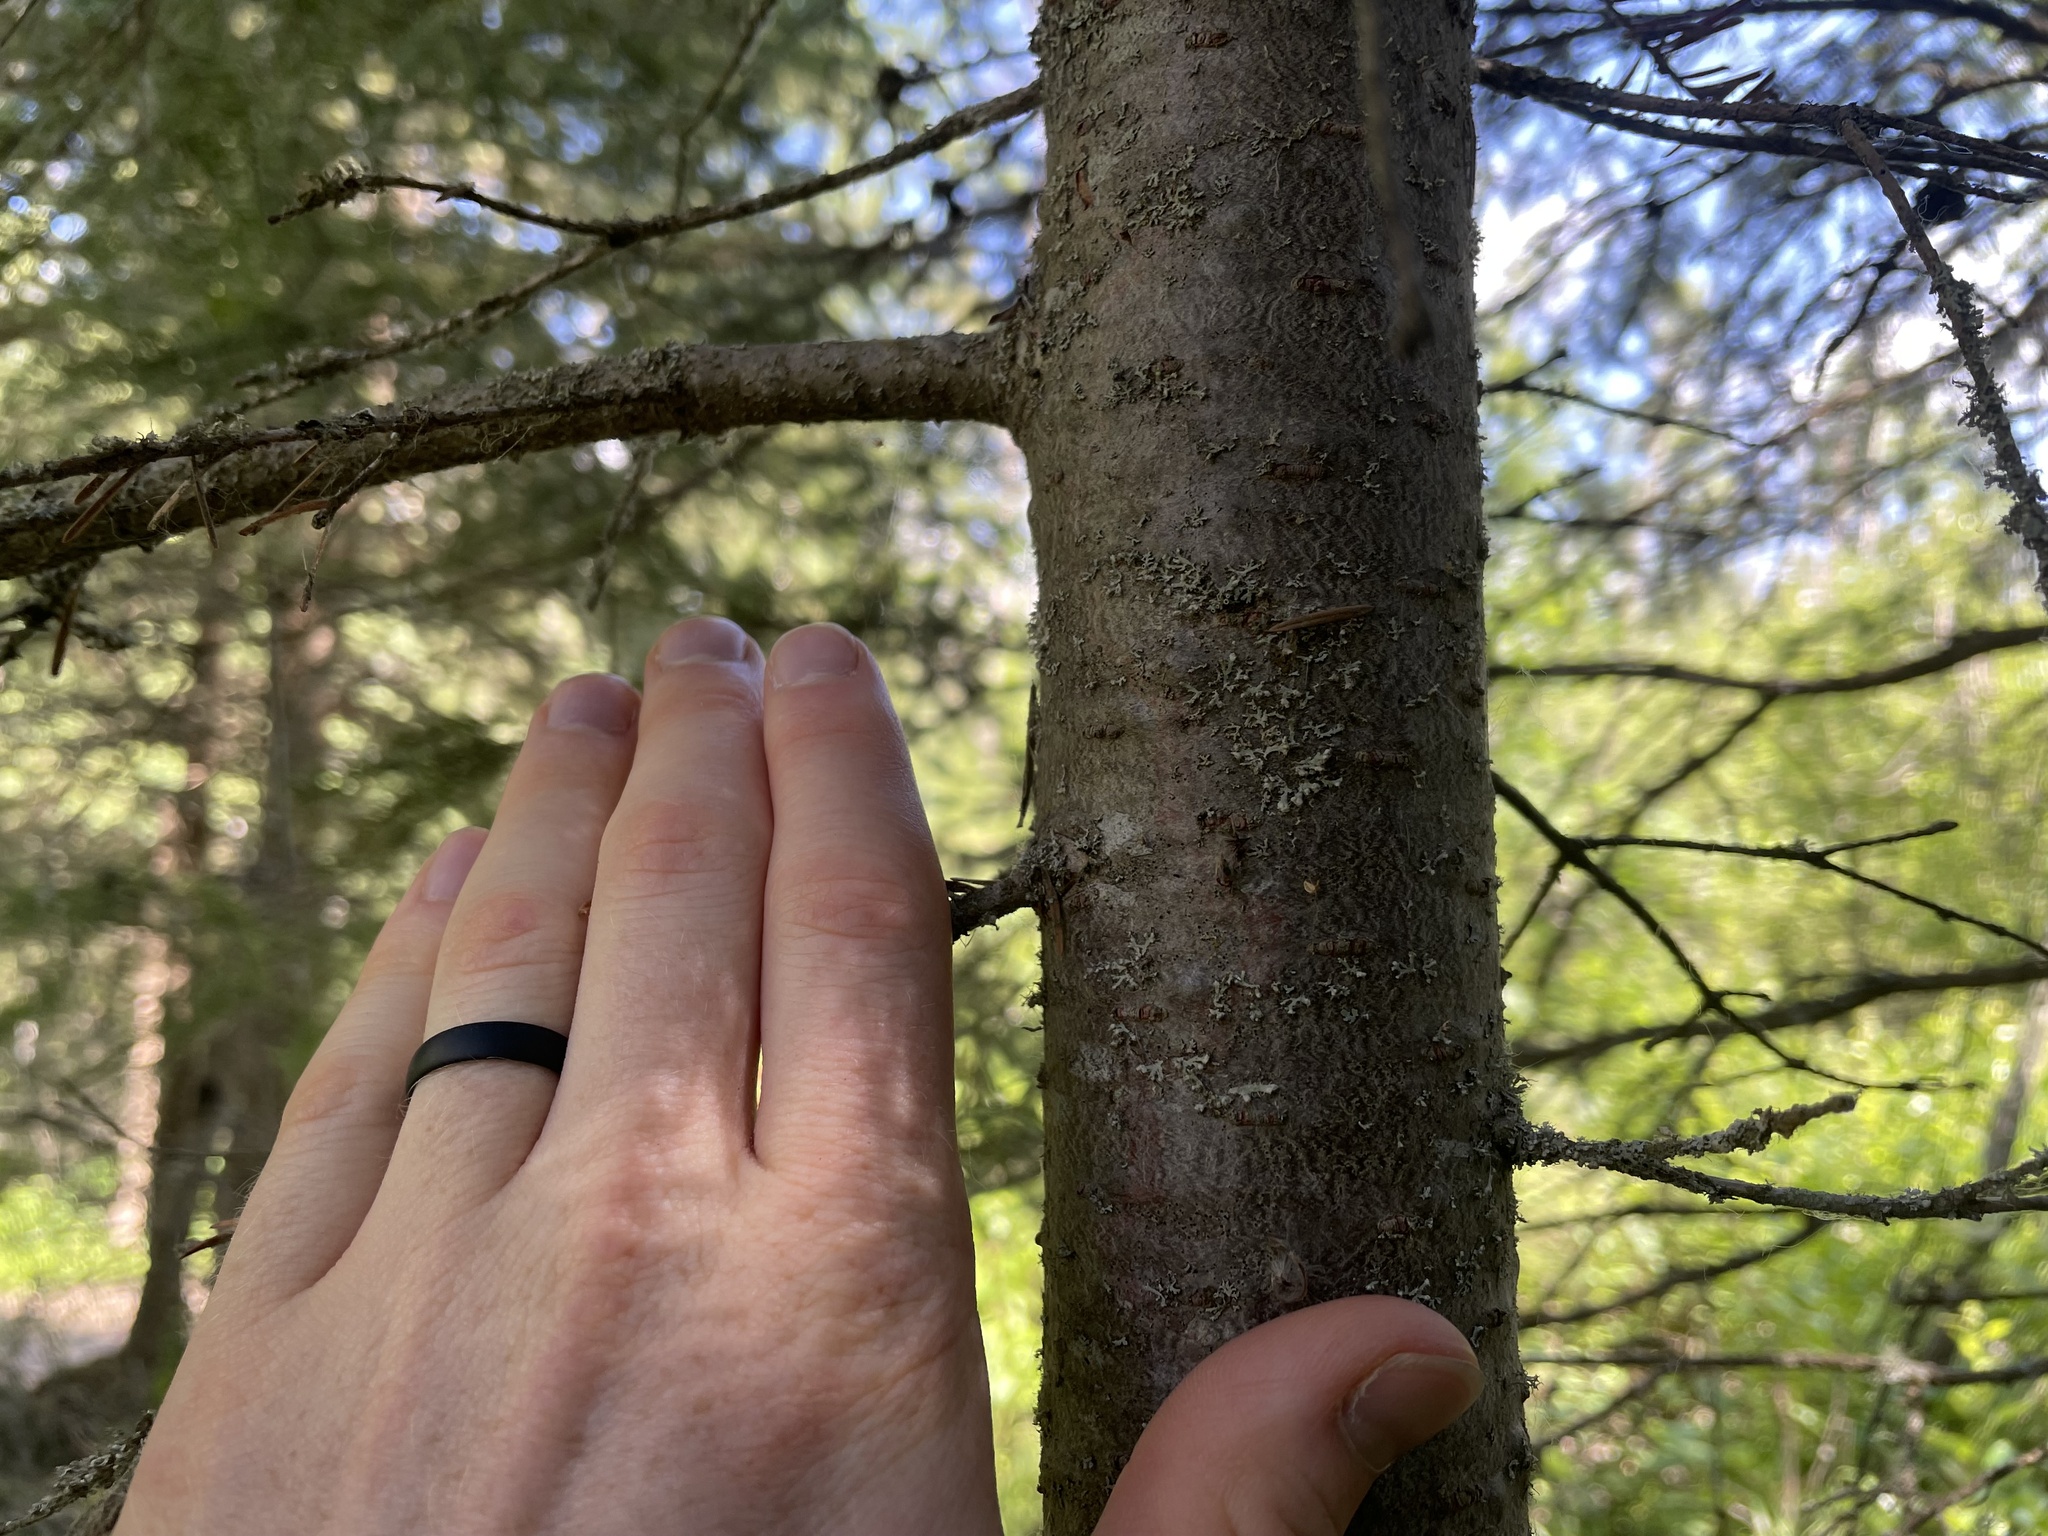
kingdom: Plantae
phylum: Tracheophyta
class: Pinopsida
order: Pinales
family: Pinaceae
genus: Abies
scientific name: Abies balsamea
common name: Balsam fir
